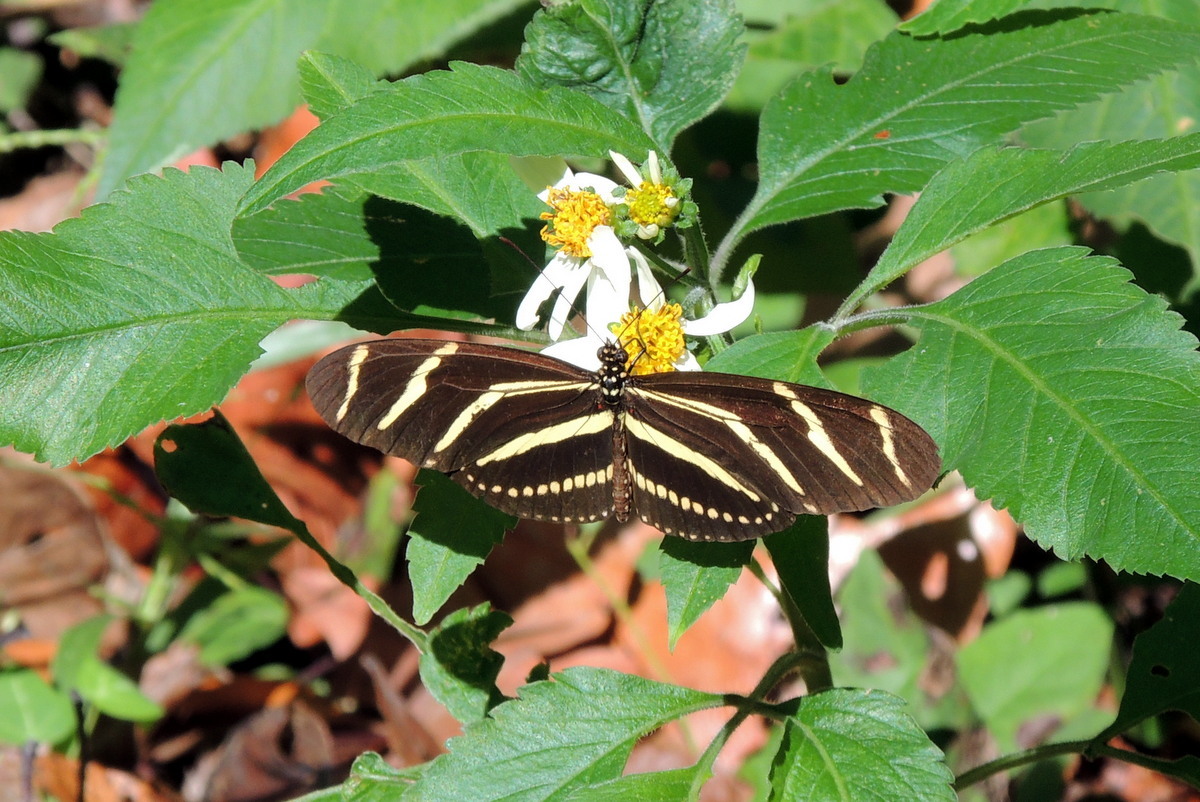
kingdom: Animalia
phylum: Arthropoda
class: Insecta
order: Lepidoptera
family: Nymphalidae
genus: Heliconius
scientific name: Heliconius charithonia
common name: Zebra long wing
